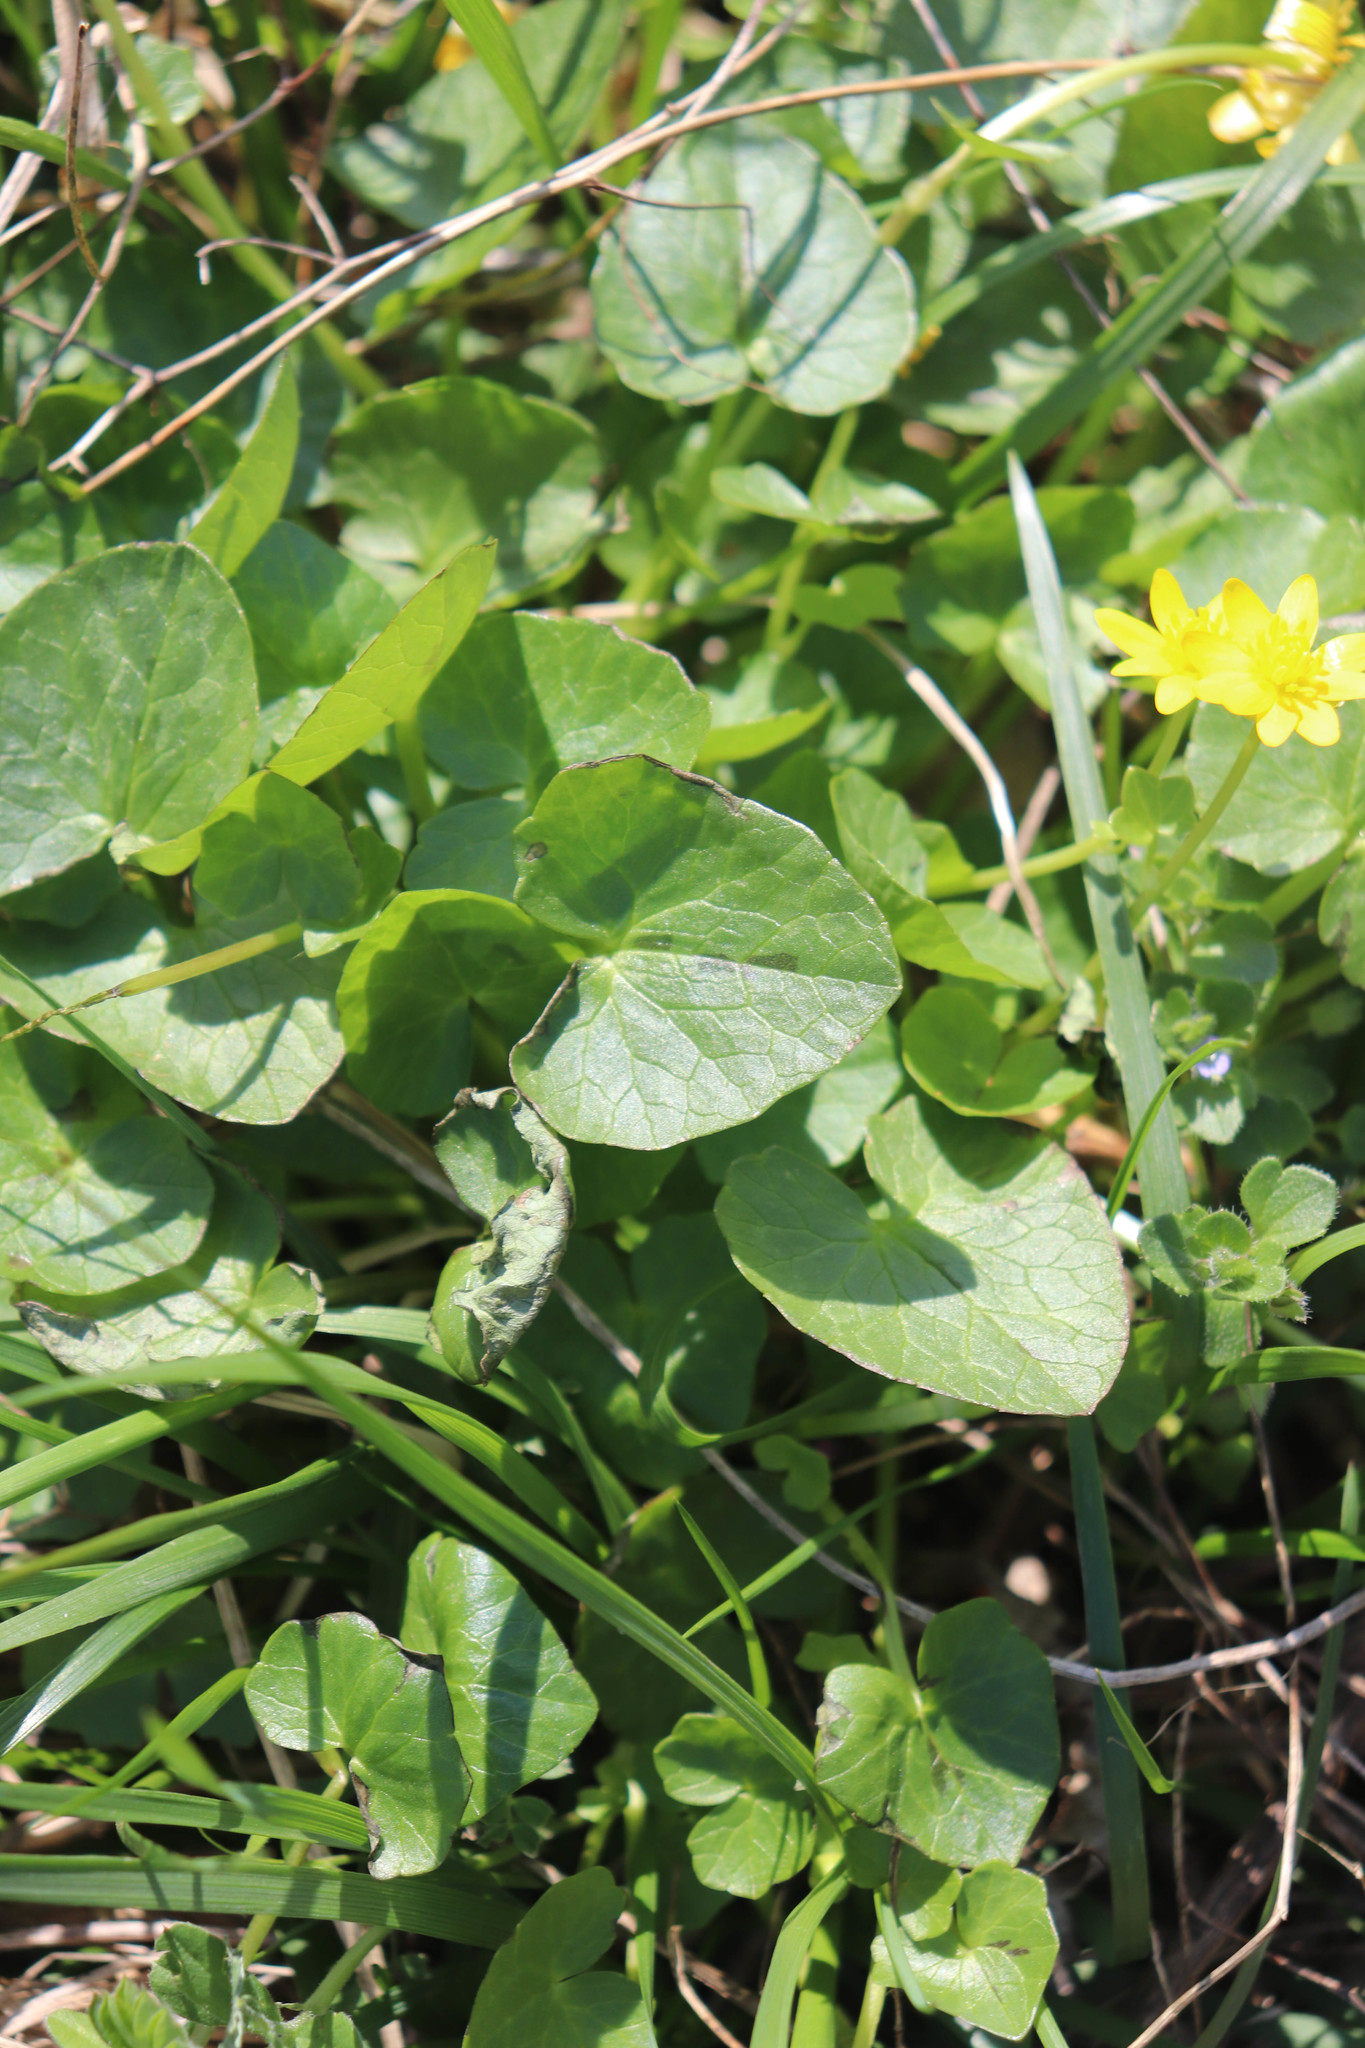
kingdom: Plantae
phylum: Tracheophyta
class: Magnoliopsida
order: Ranunculales
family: Ranunculaceae
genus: Ficaria
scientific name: Ficaria verna
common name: Lesser celandine
